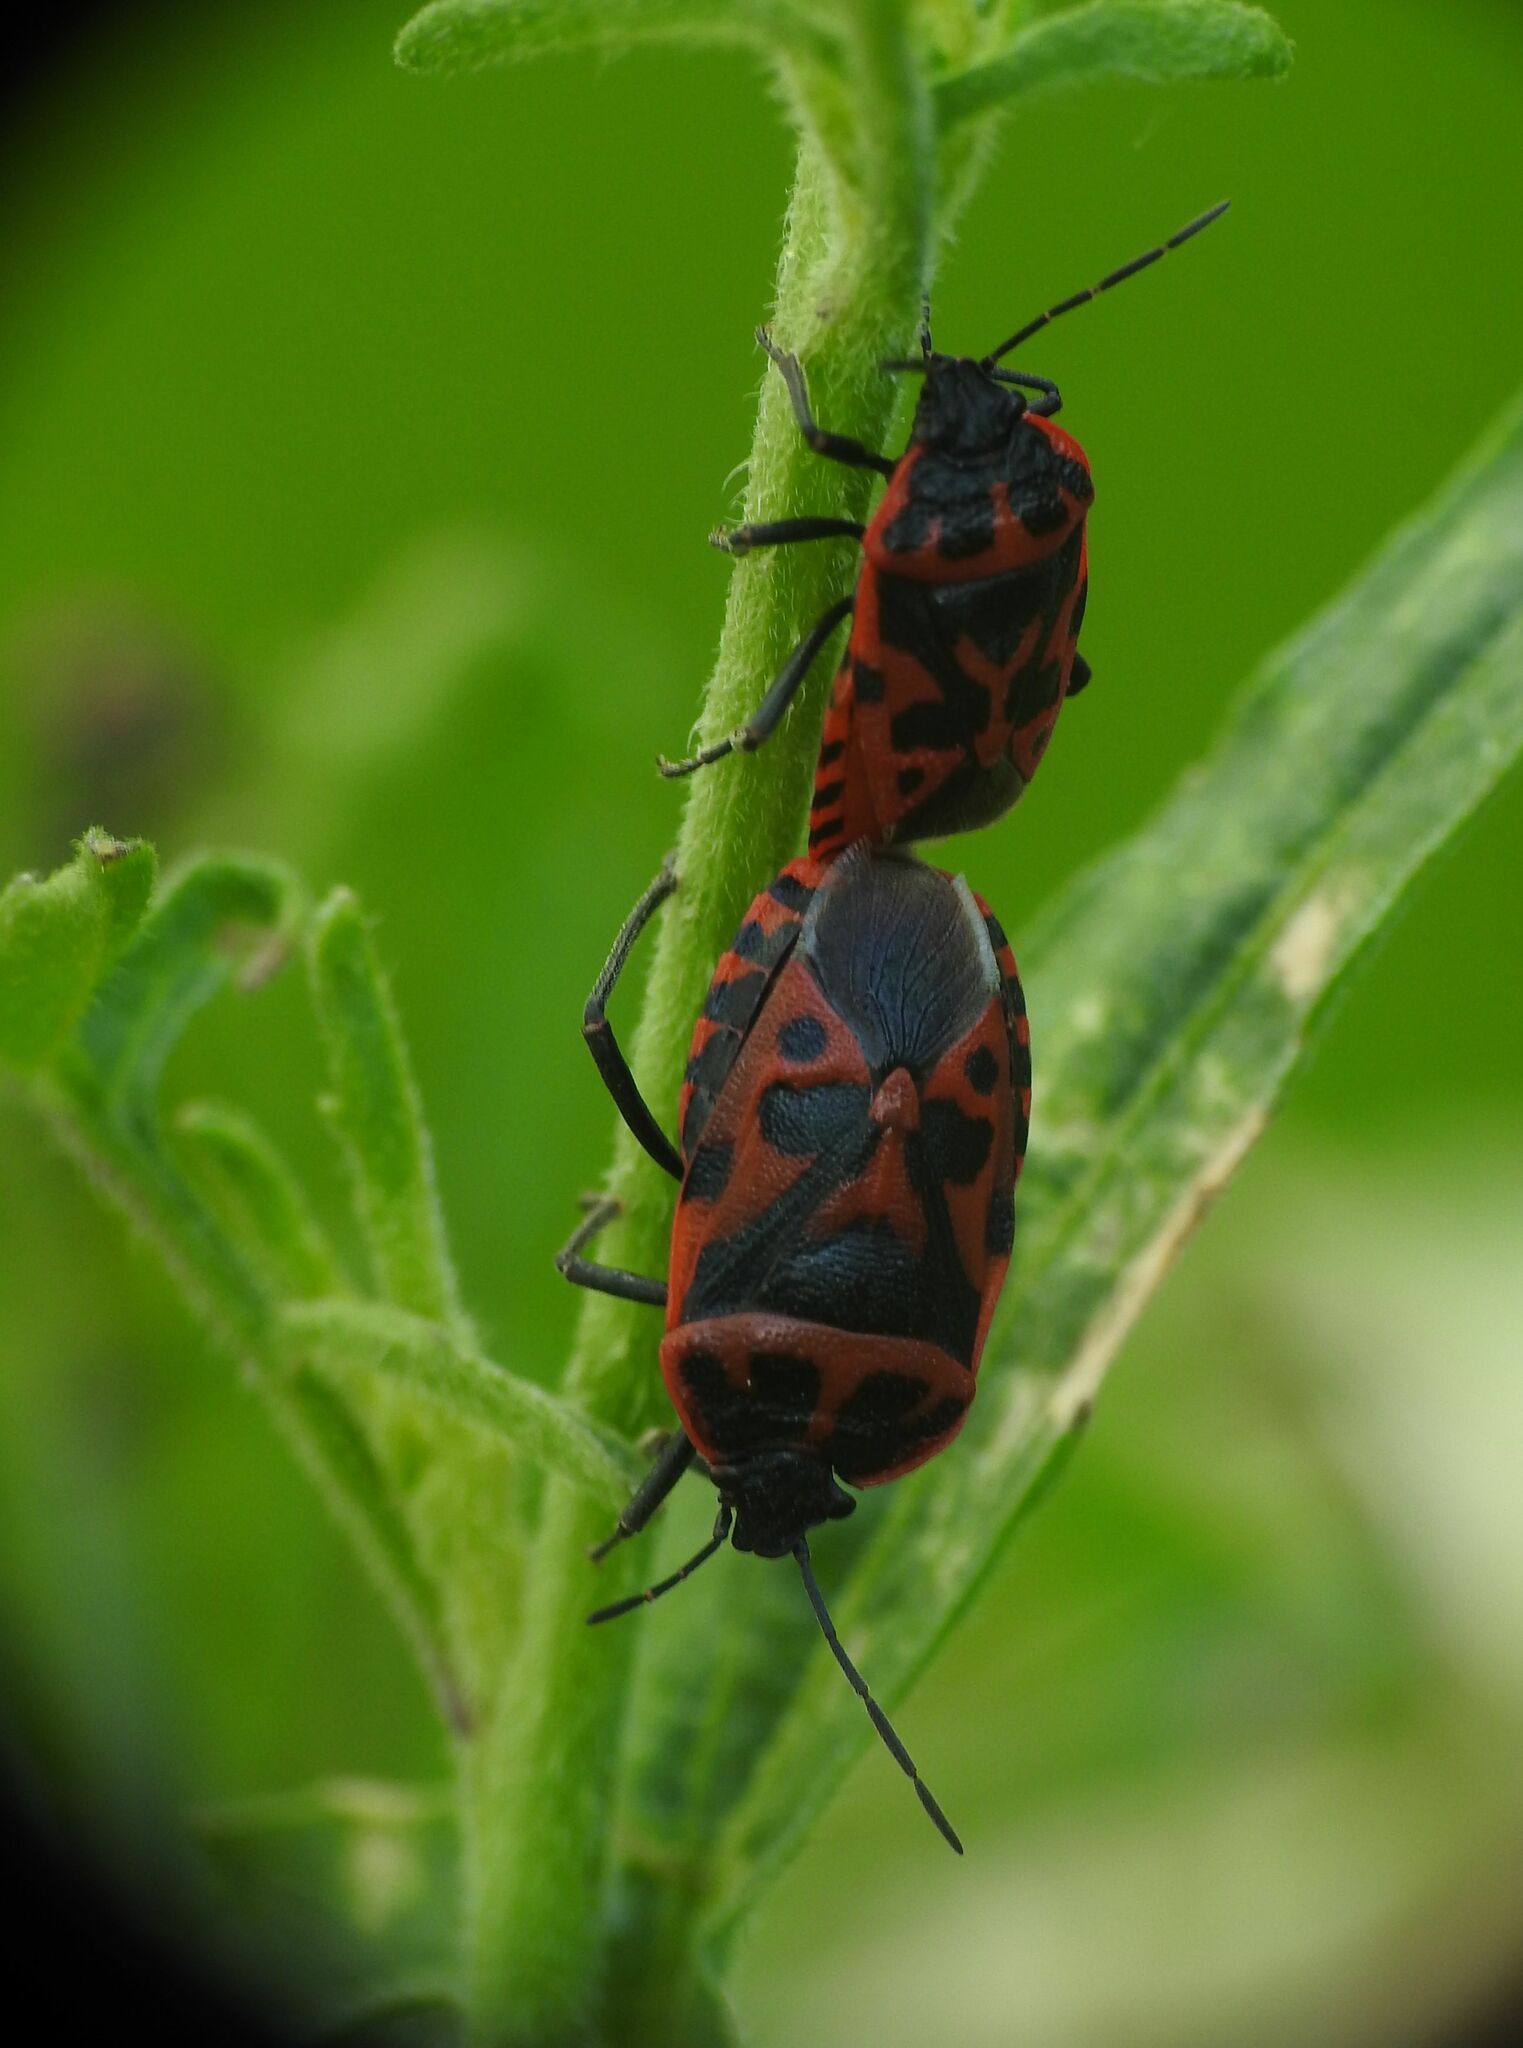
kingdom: Animalia
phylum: Arthropoda
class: Insecta
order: Hemiptera
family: Pentatomidae
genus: Eurydema
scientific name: Eurydema ventralis
